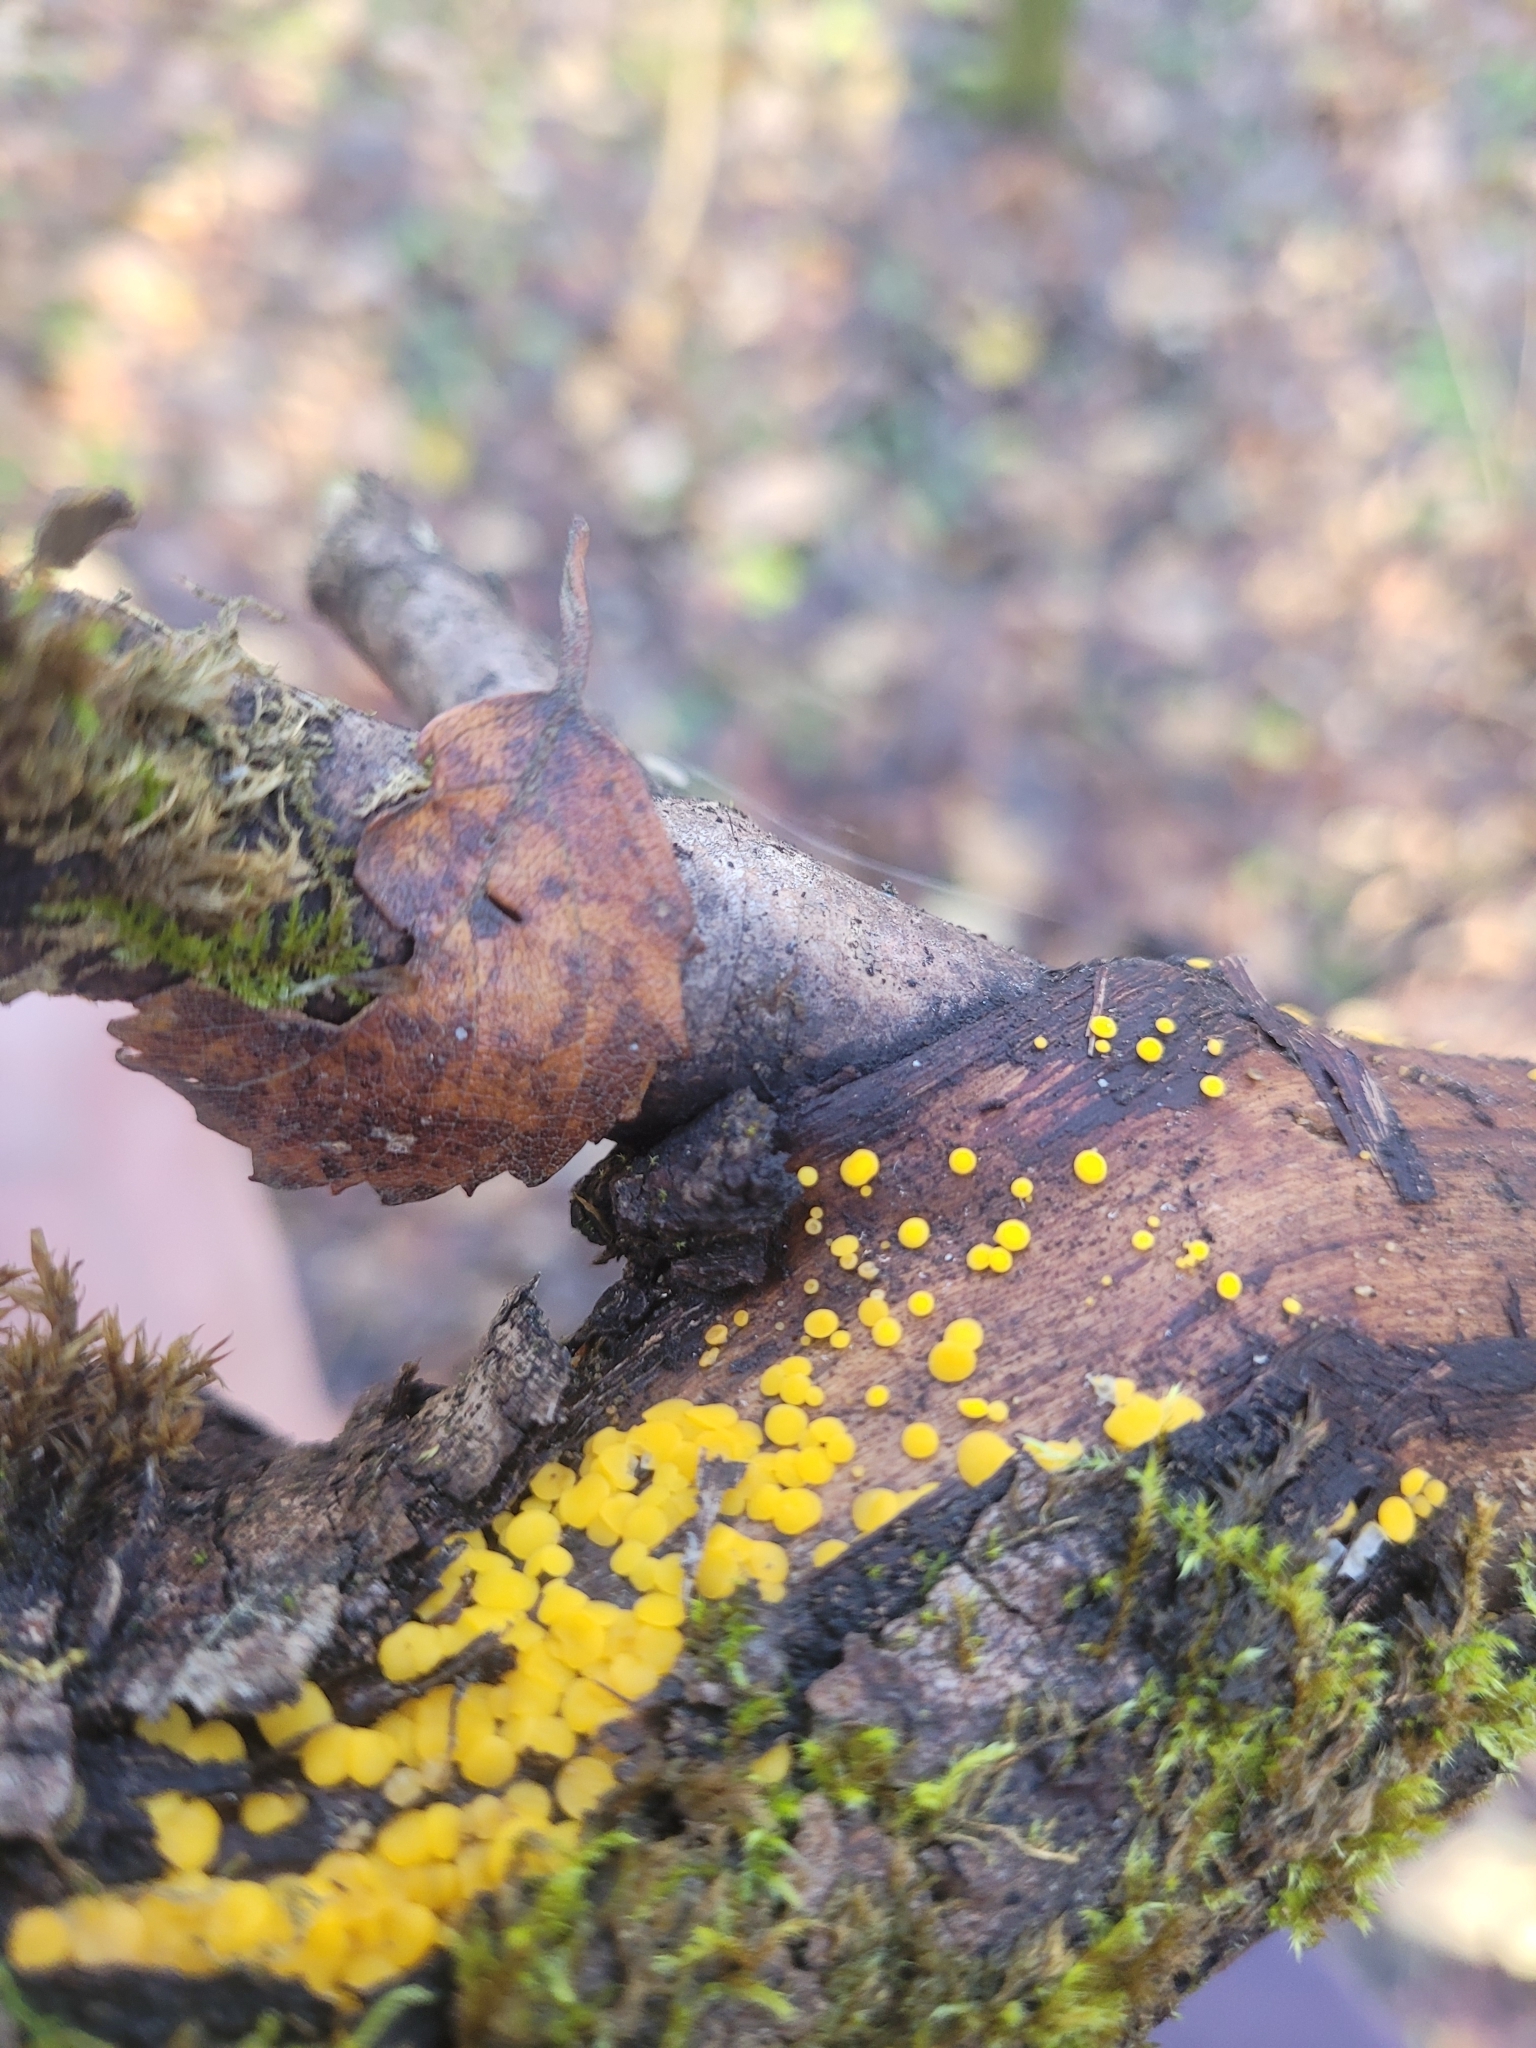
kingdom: Fungi
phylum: Ascomycota
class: Leotiomycetes
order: Helotiales
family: Pezizellaceae
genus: Calycina
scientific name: Calycina citrina
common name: Yellow fairy cups
